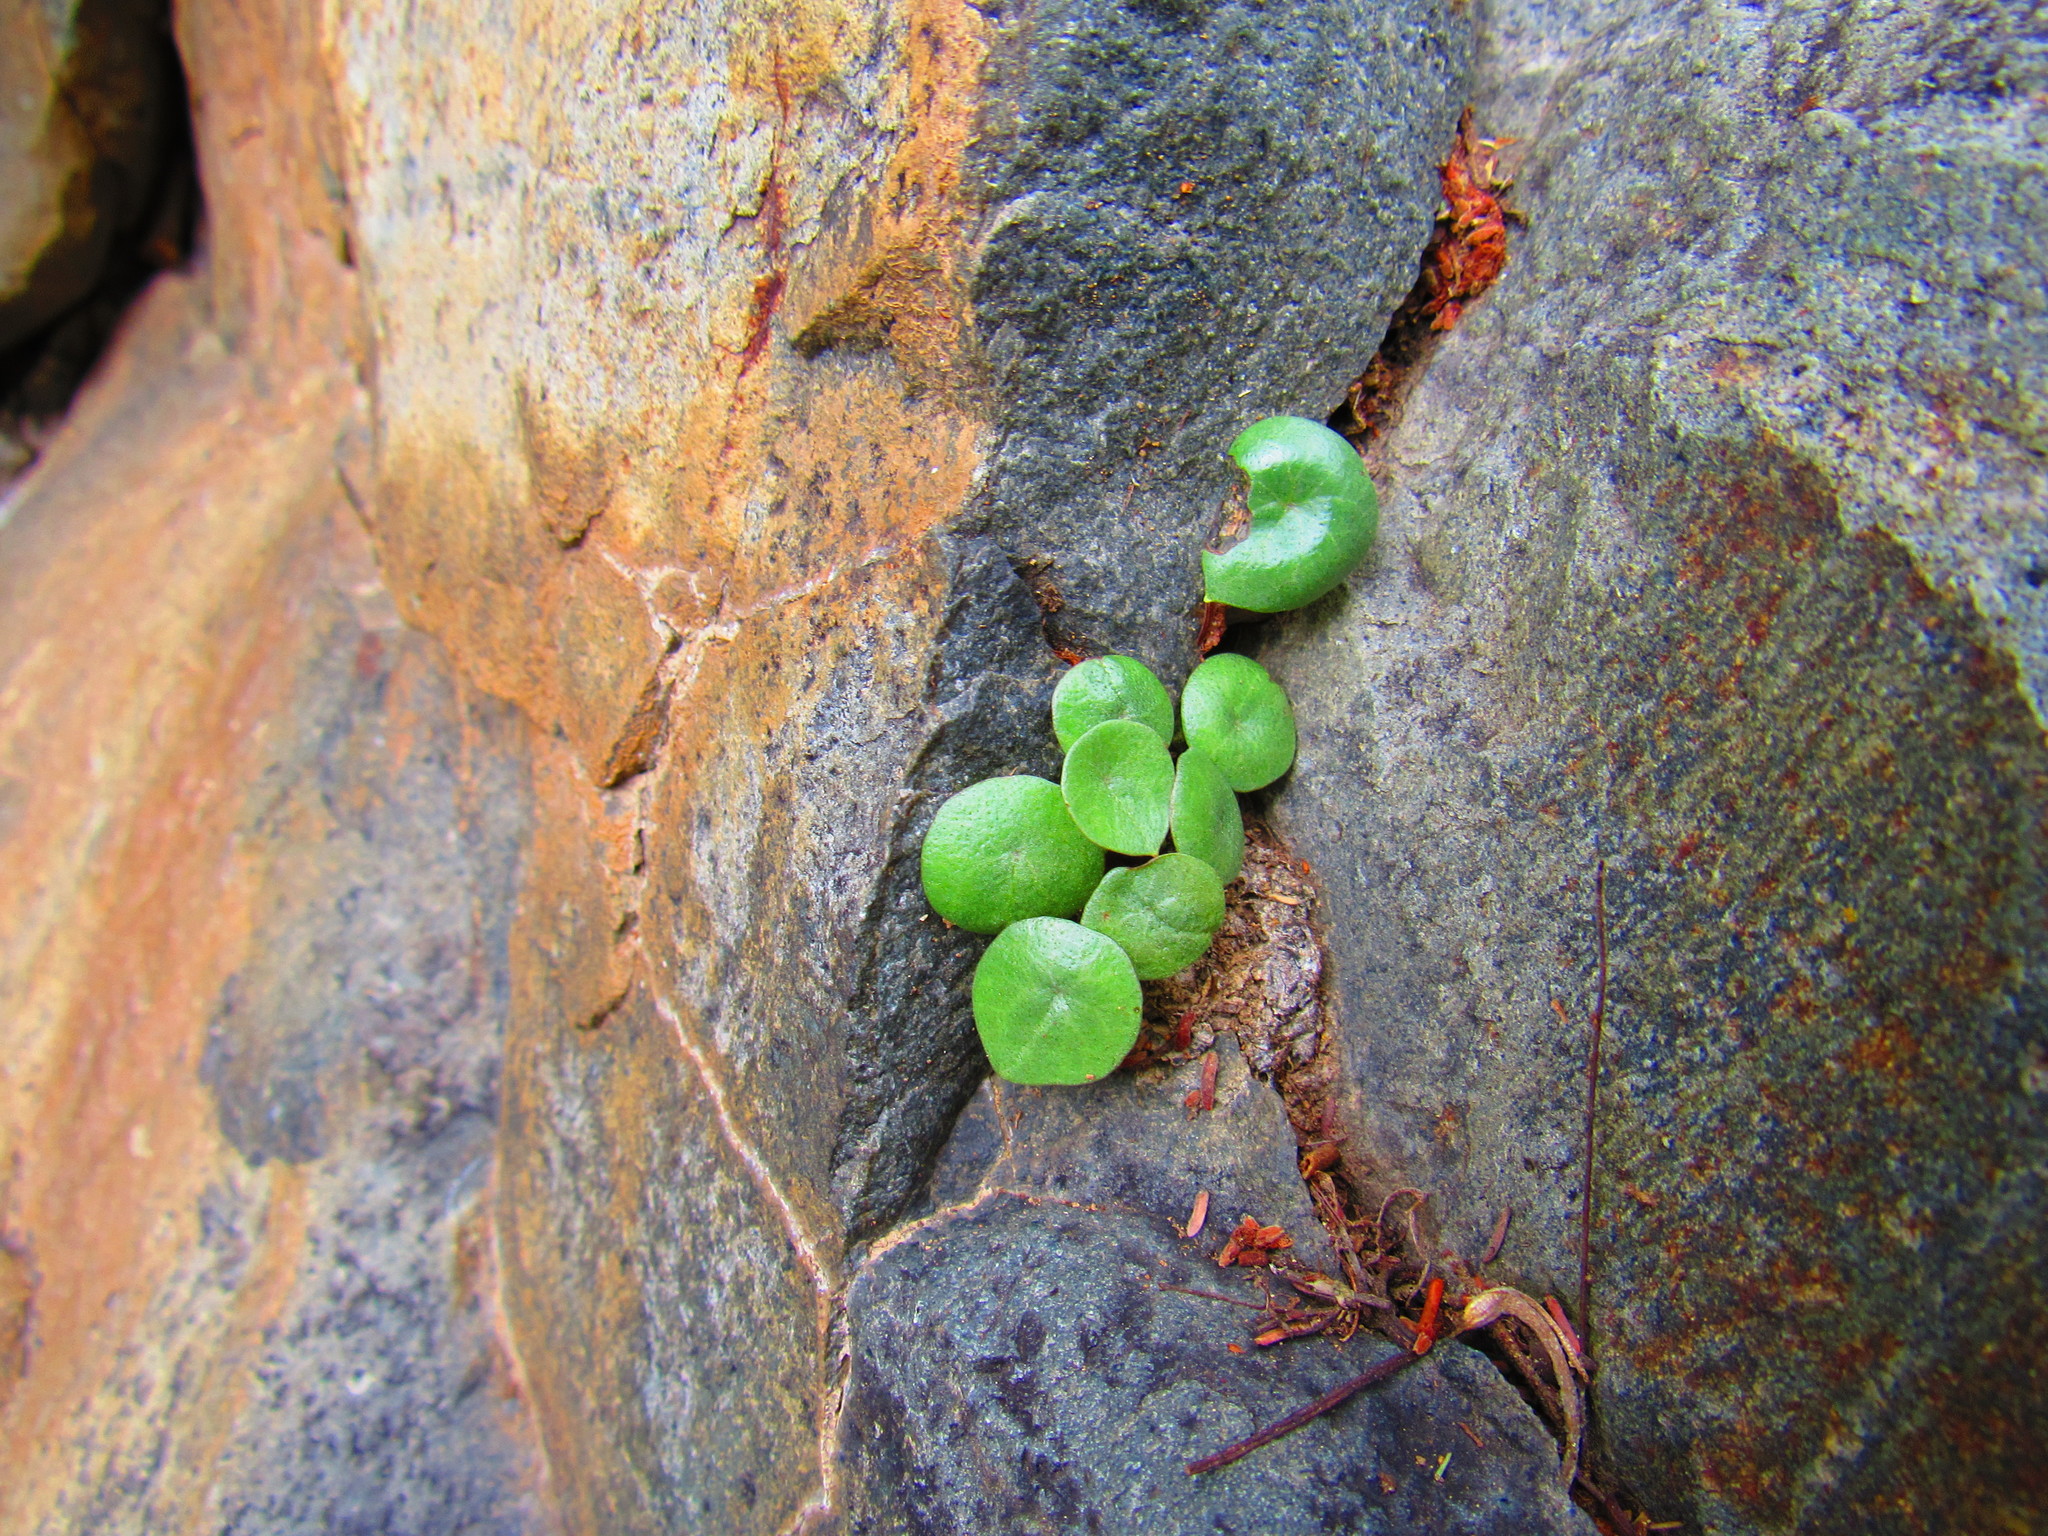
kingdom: Plantae
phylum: Tracheophyta
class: Magnoliopsida
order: Piperales
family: Piperaceae
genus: Peperomia
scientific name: Peperomia bracteata
